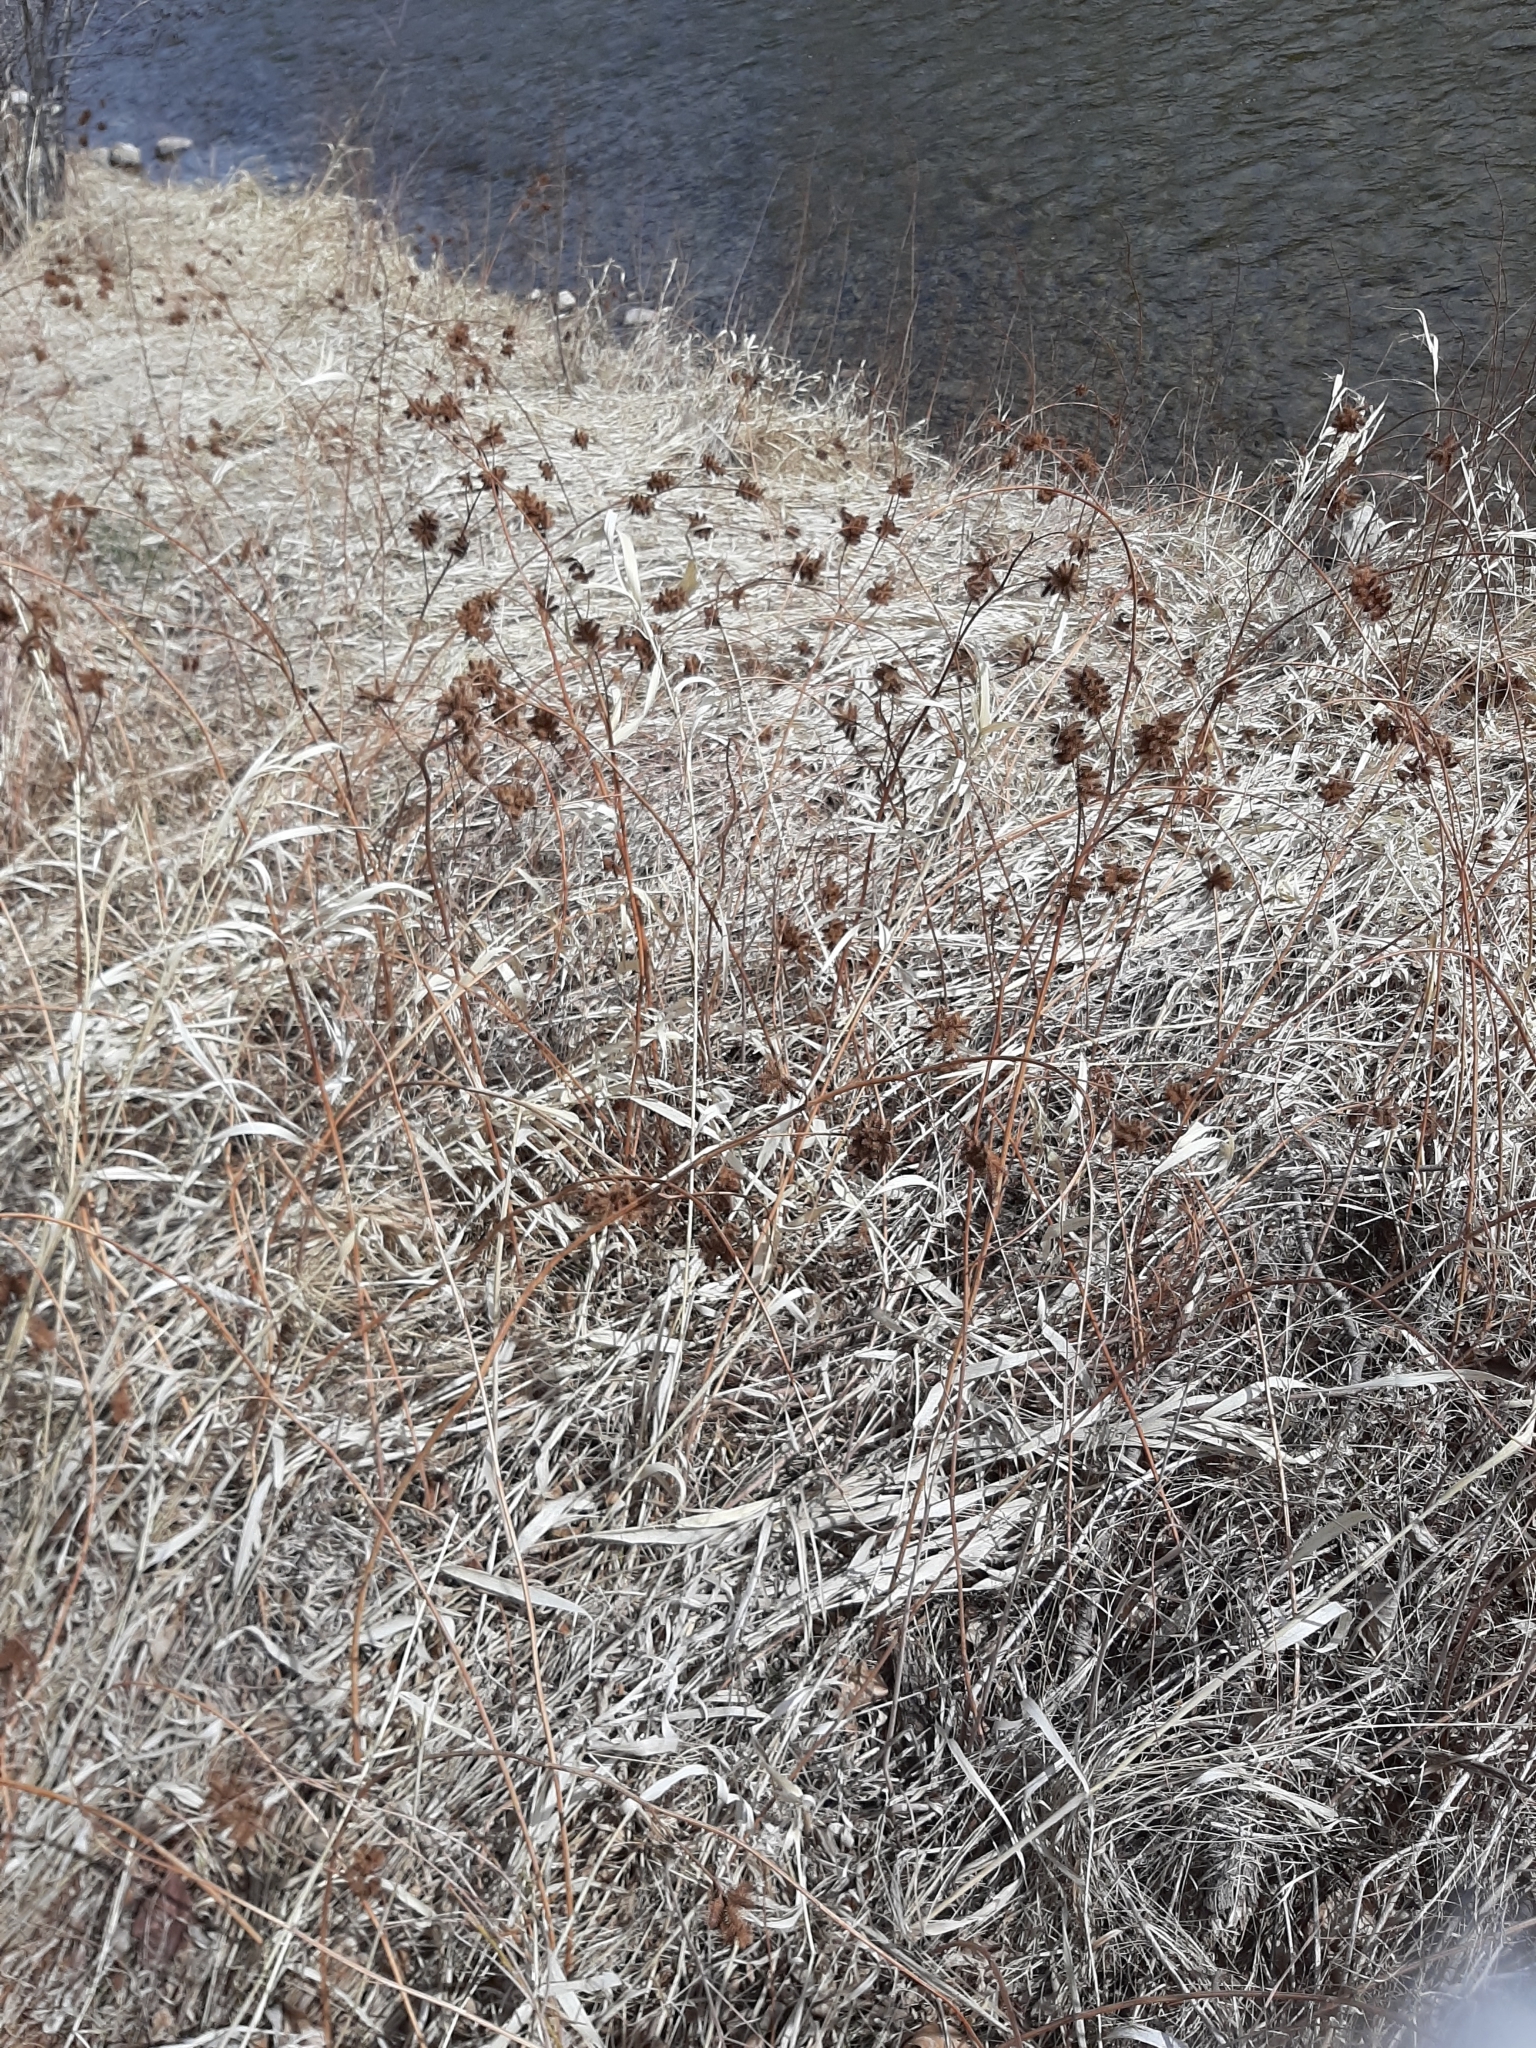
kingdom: Plantae
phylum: Tracheophyta
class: Magnoliopsida
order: Fabales
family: Fabaceae
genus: Glycyrrhiza
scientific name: Glycyrrhiza lepidota
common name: American liquorice
